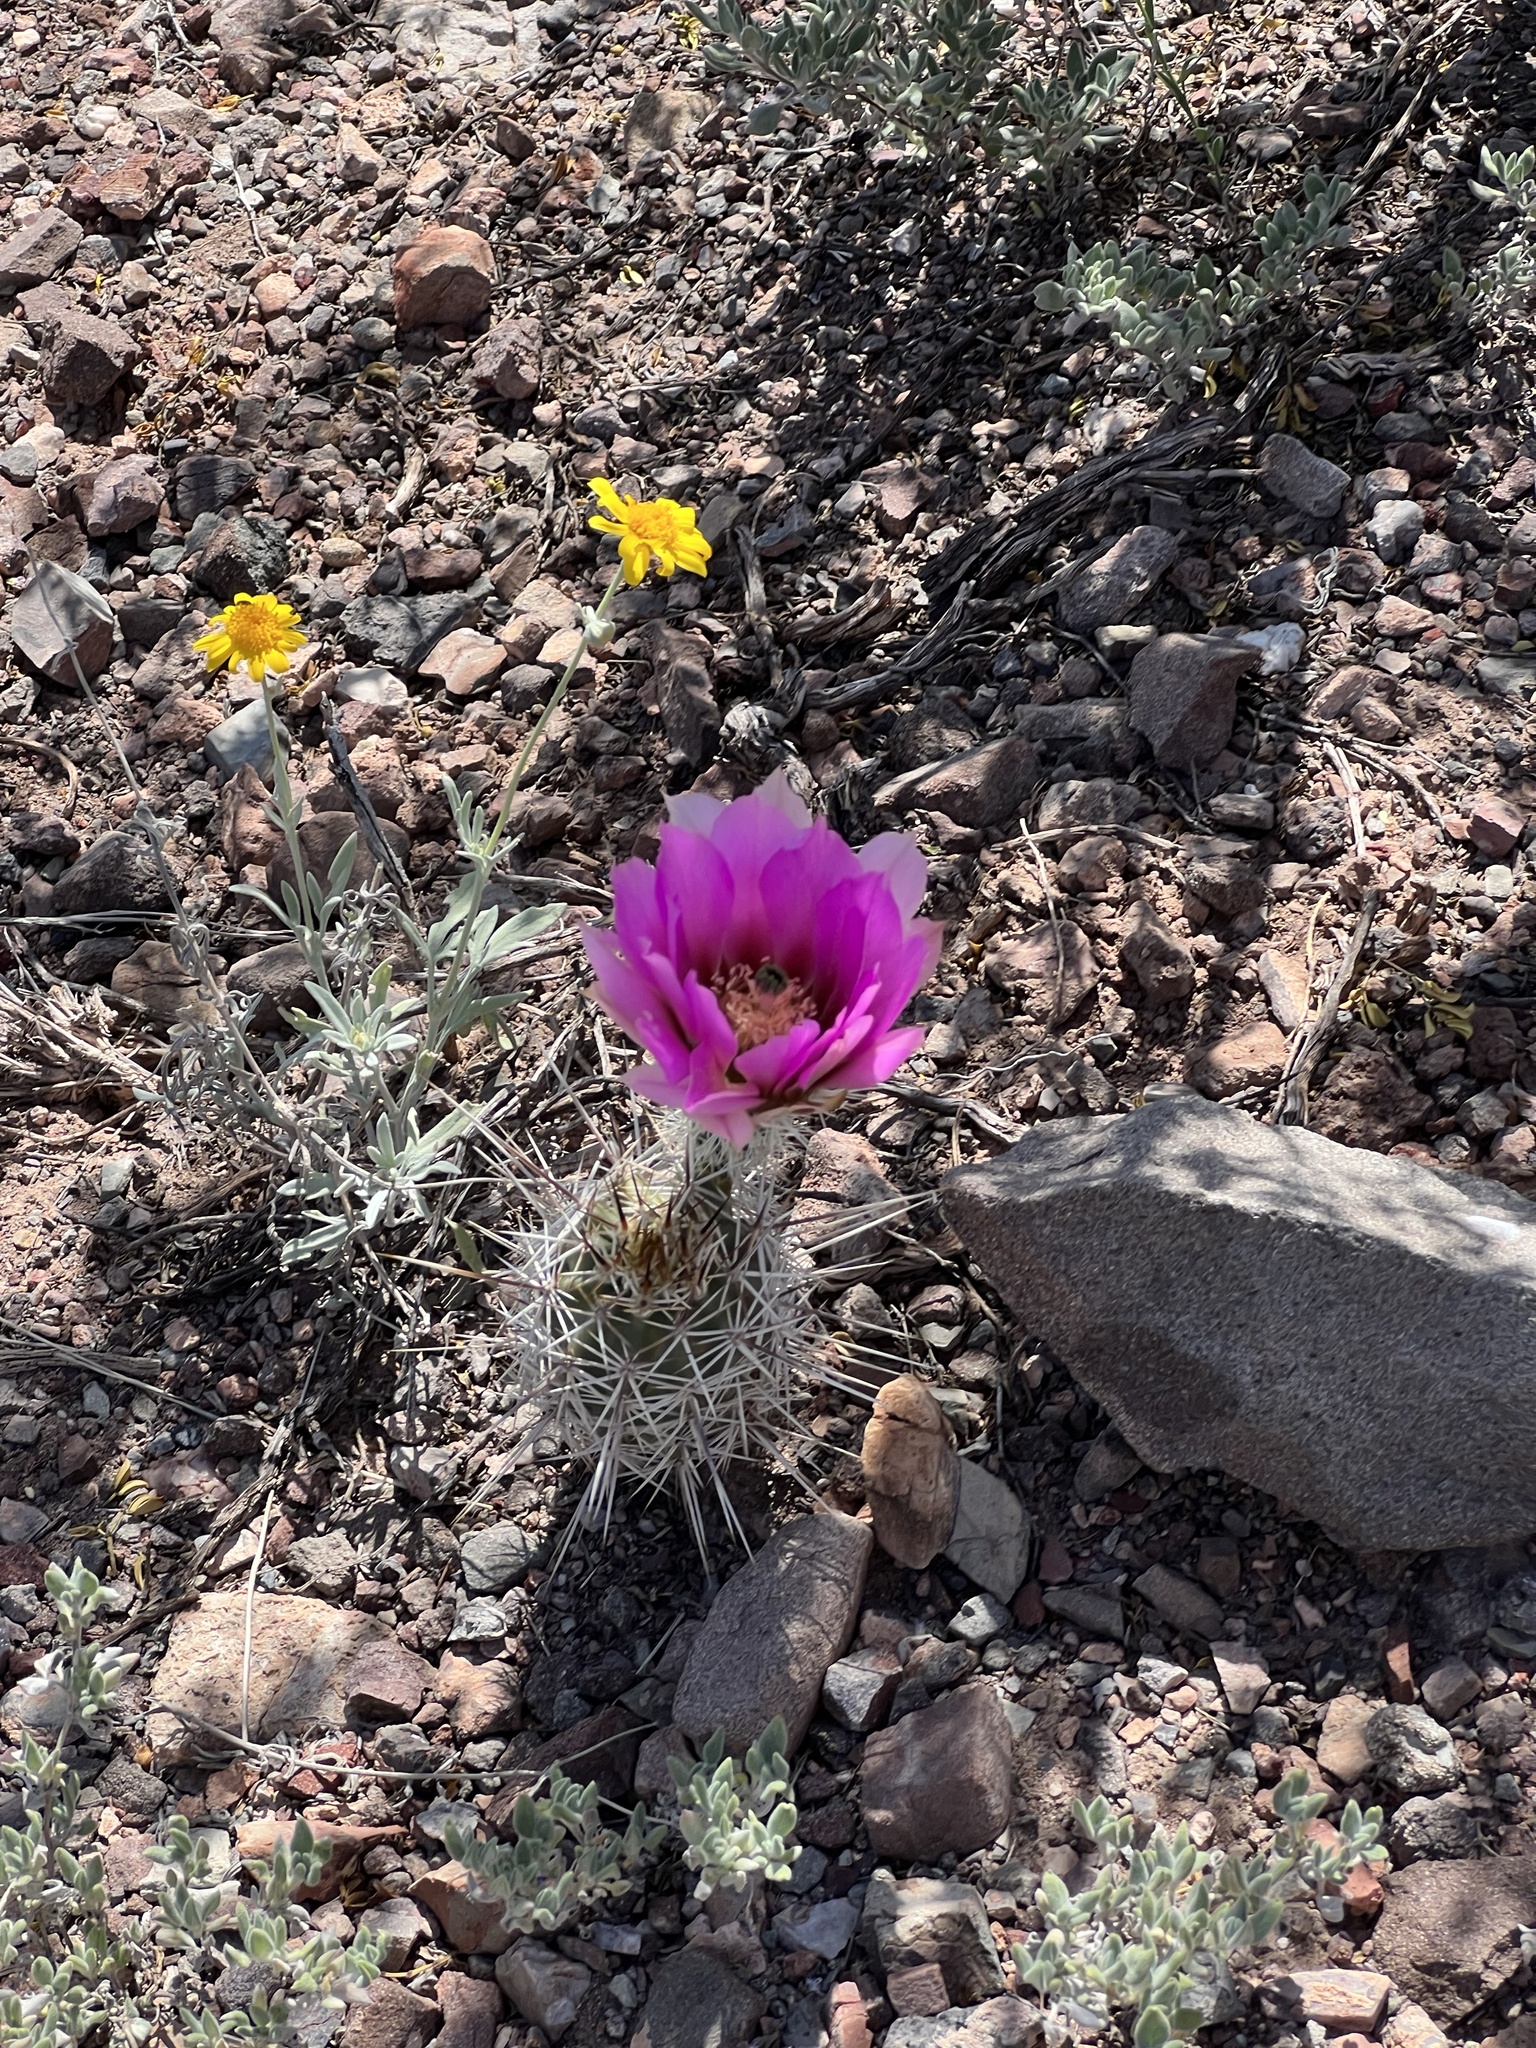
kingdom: Plantae
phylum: Tracheophyta
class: Magnoliopsida
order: Caryophyllales
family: Cactaceae
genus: Echinocereus
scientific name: Echinocereus fasciculatus
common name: Bundle hedgehog
